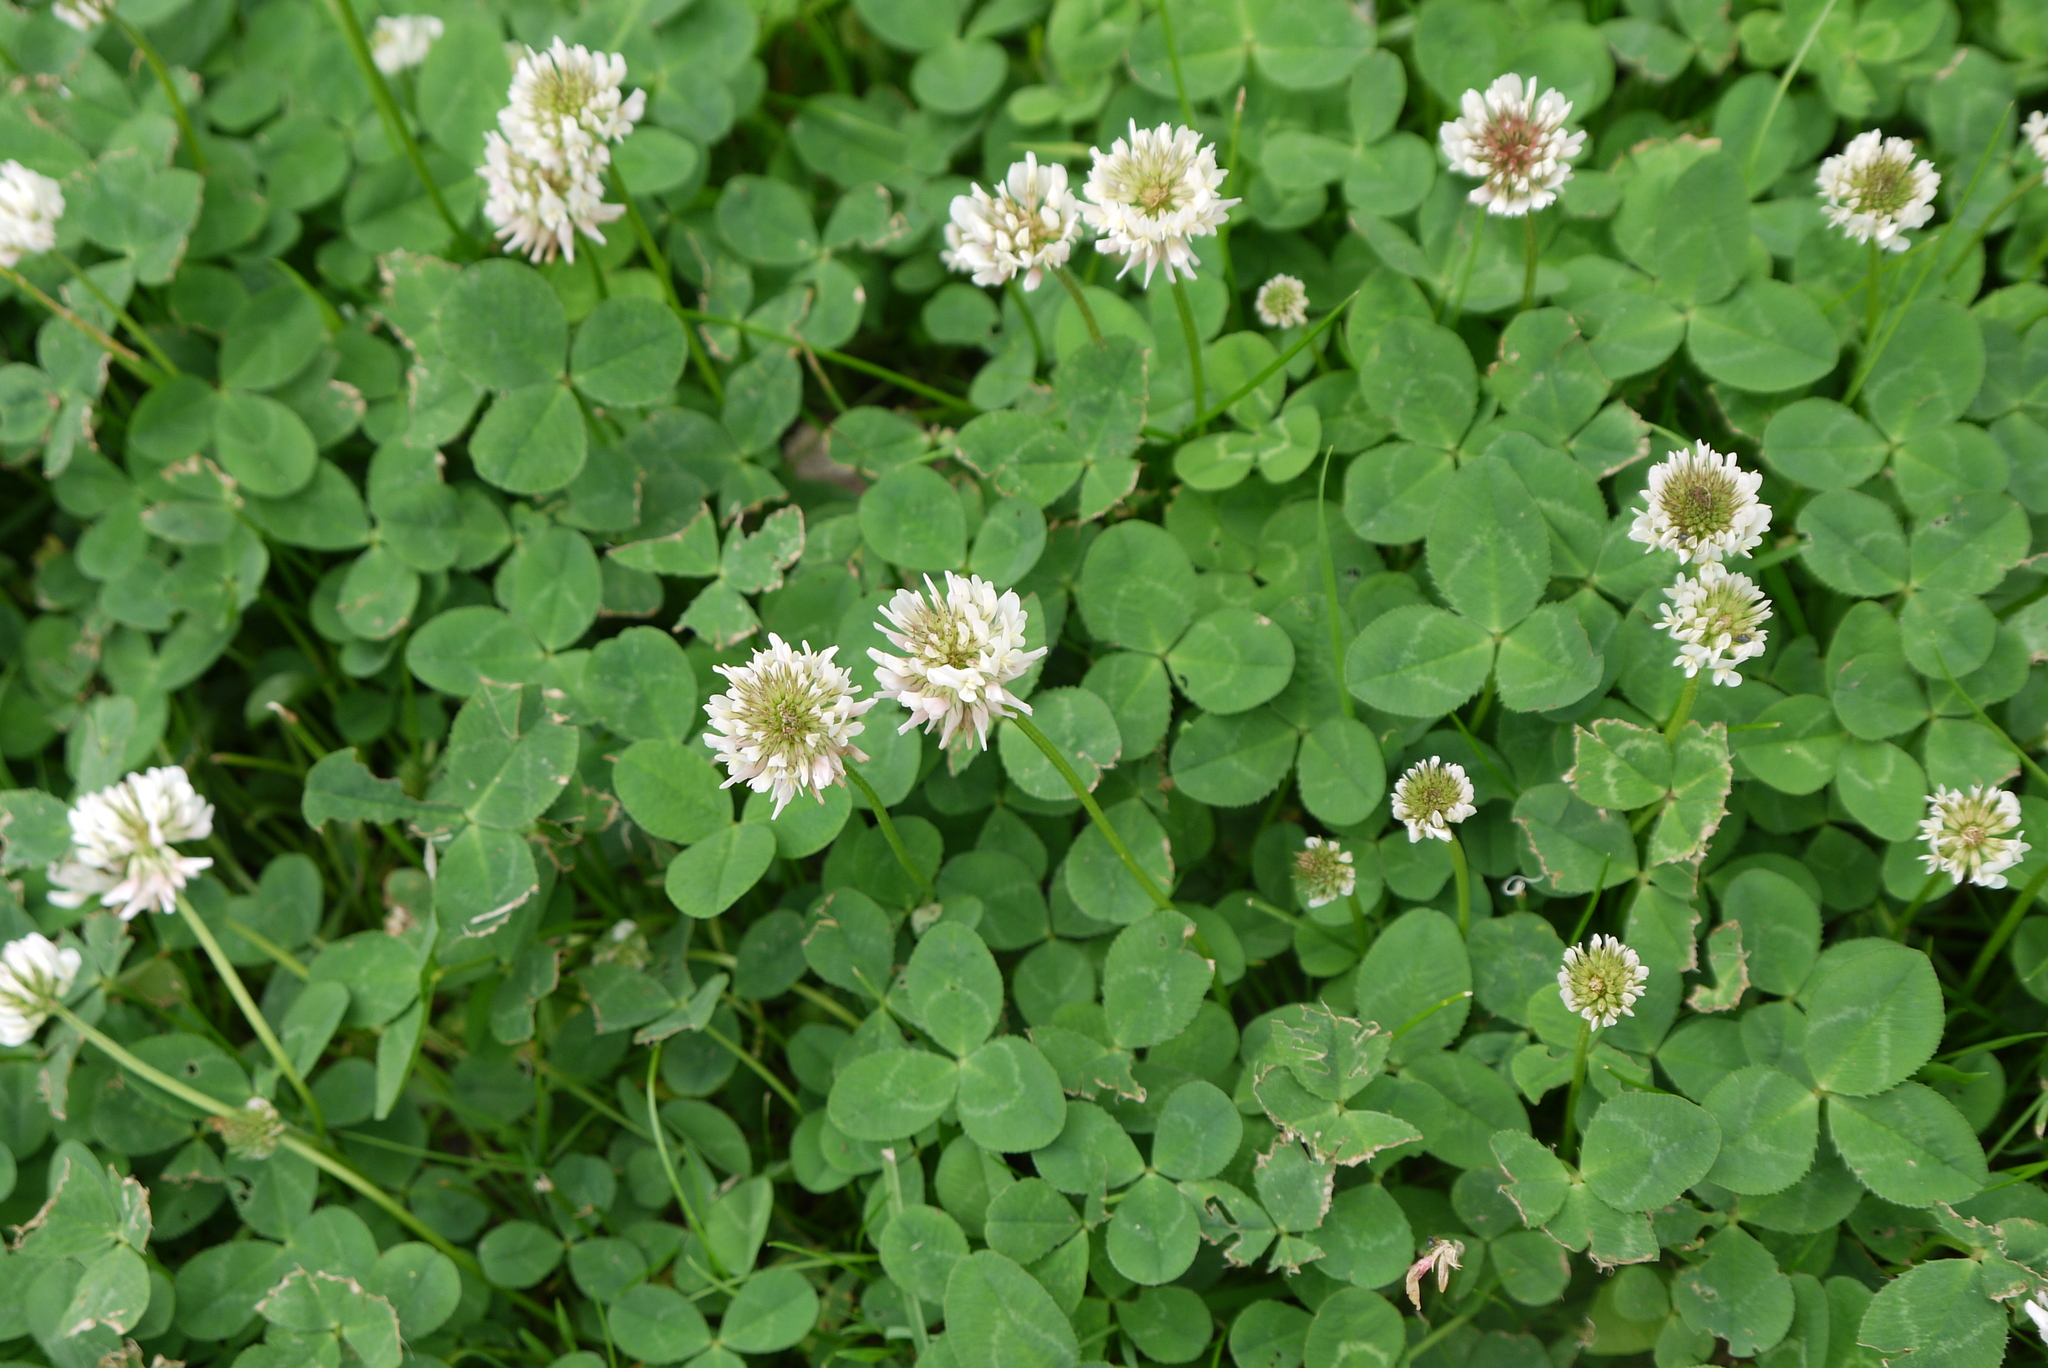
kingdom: Plantae
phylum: Tracheophyta
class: Magnoliopsida
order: Fabales
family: Fabaceae
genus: Trifolium
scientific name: Trifolium repens
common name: White clover
